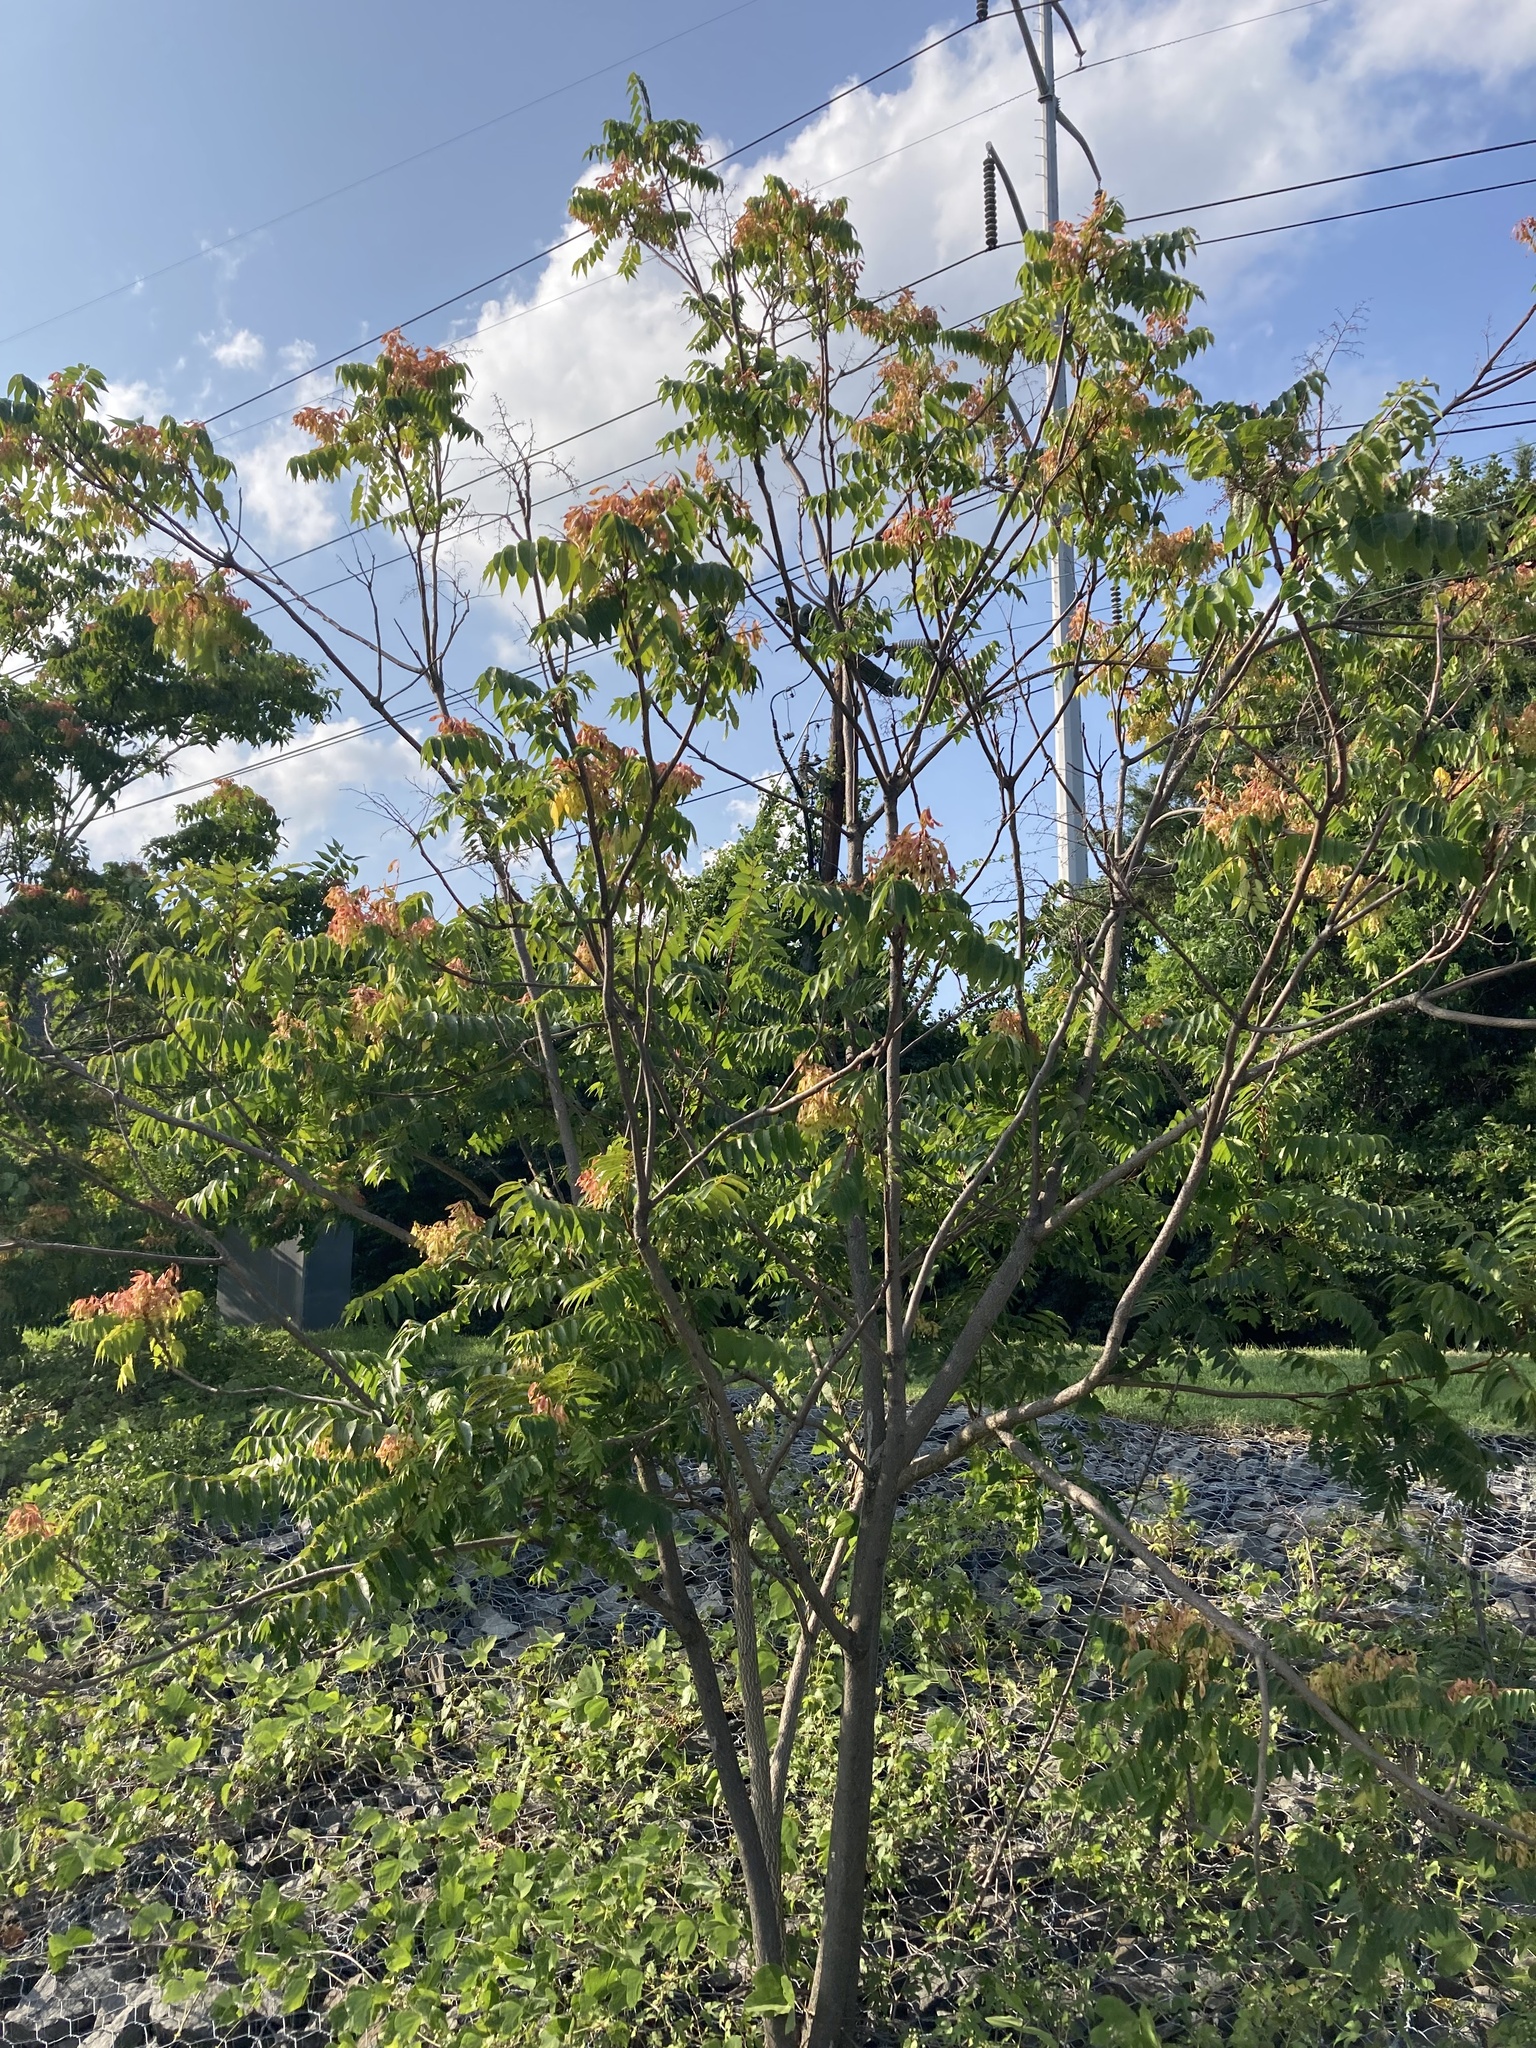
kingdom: Plantae
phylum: Tracheophyta
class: Magnoliopsida
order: Sapindales
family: Simaroubaceae
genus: Ailanthus
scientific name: Ailanthus altissima
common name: Tree-of-heaven
